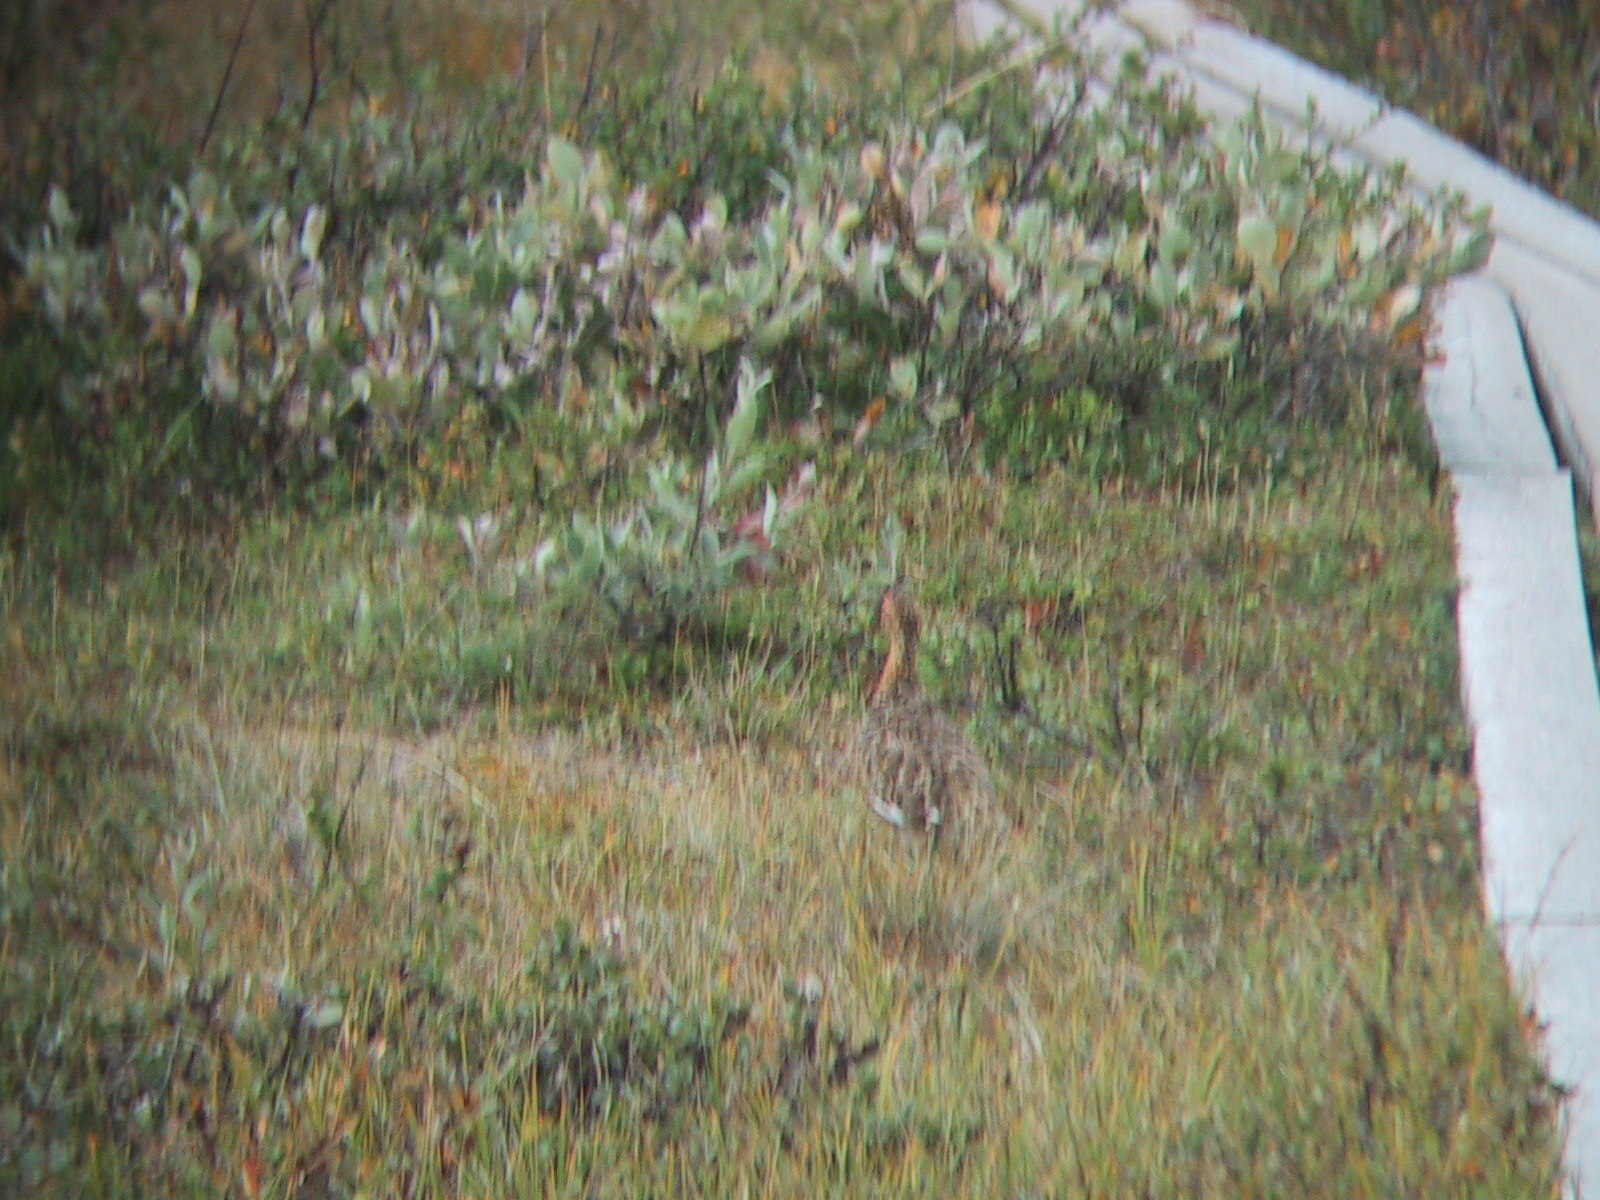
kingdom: Animalia
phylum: Chordata
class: Aves
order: Galliformes
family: Phasianidae
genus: Lagopus
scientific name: Lagopus lagopus
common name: Willow ptarmigan
